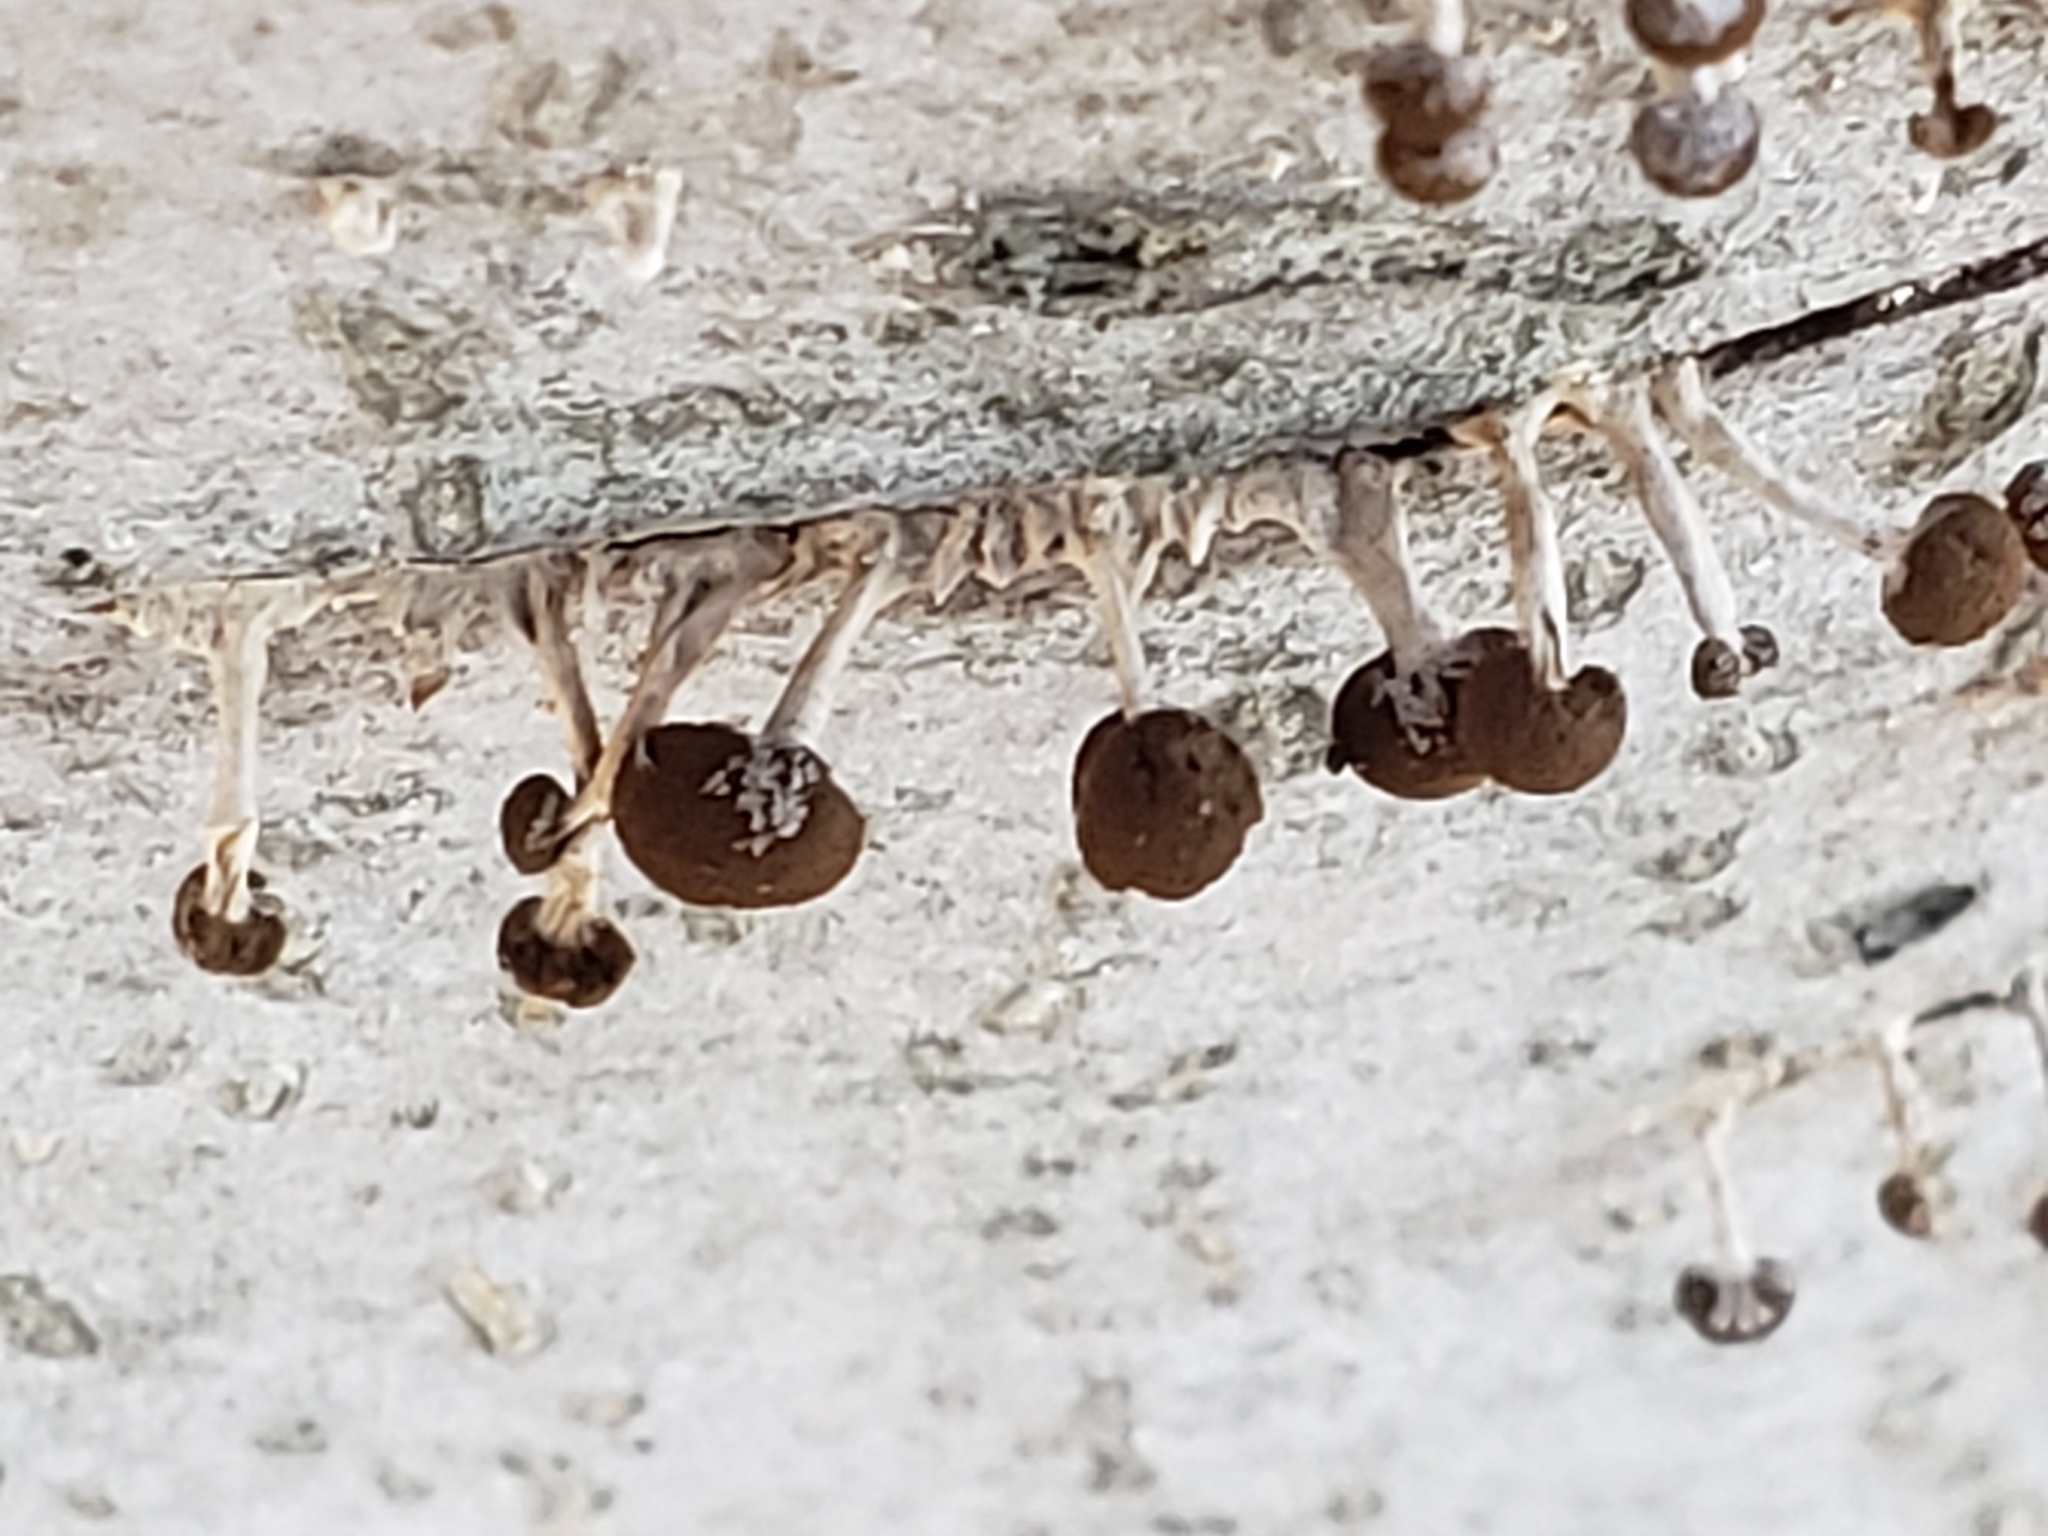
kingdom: Fungi
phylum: Basidiomycota
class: Atractiellomycetes
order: Atractiellales
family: Phleogenaceae
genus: Phleogena
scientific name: Phleogena faginea
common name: Fenugreek stalkball
